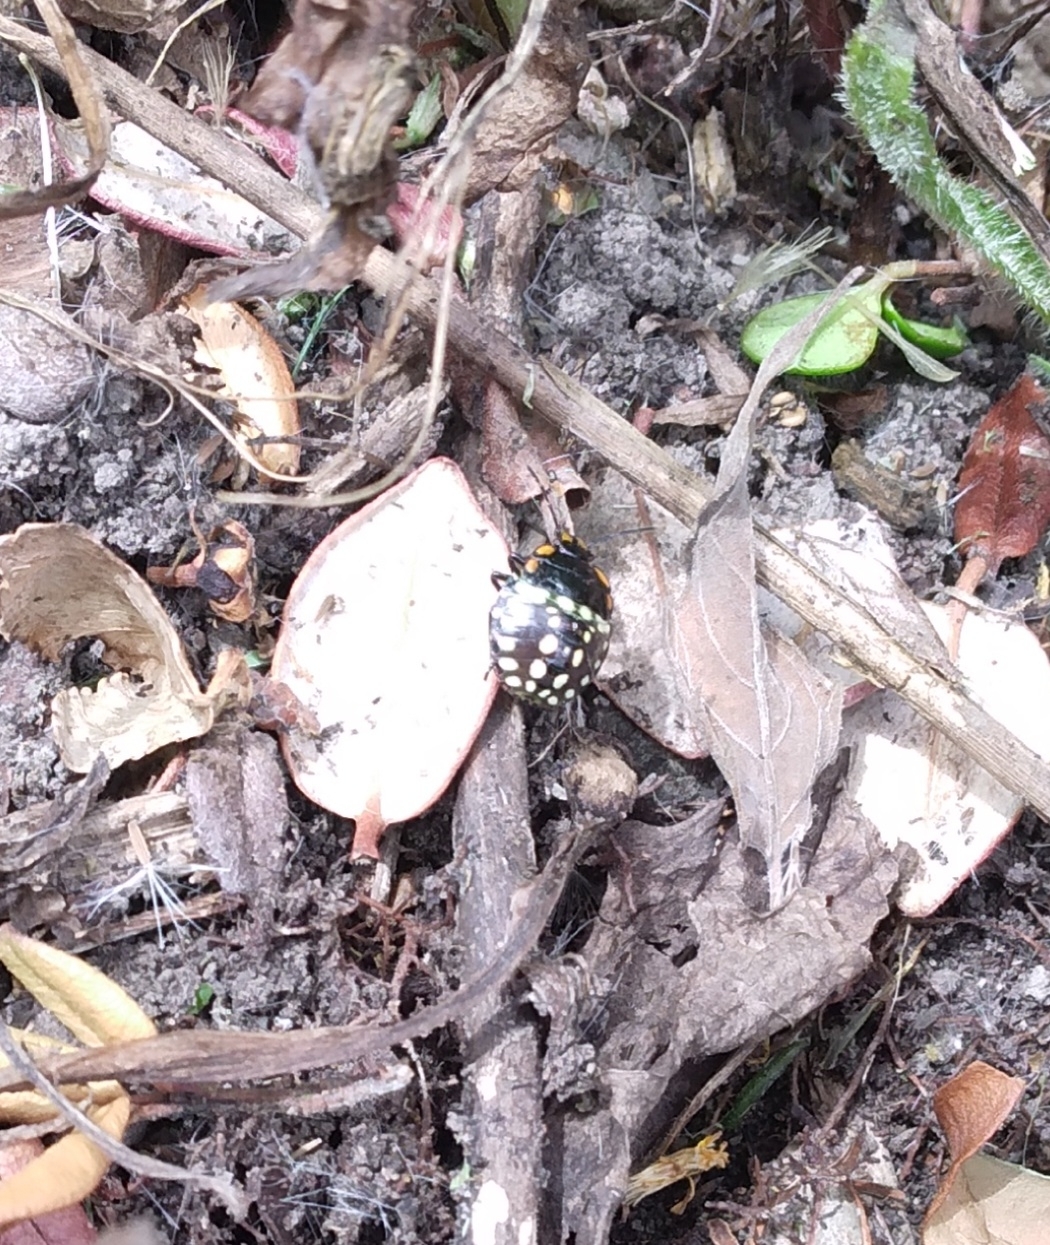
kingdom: Animalia
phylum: Arthropoda
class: Insecta
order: Hemiptera
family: Pentatomidae
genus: Nezara
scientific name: Nezara viridula
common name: Southern green stink bug
